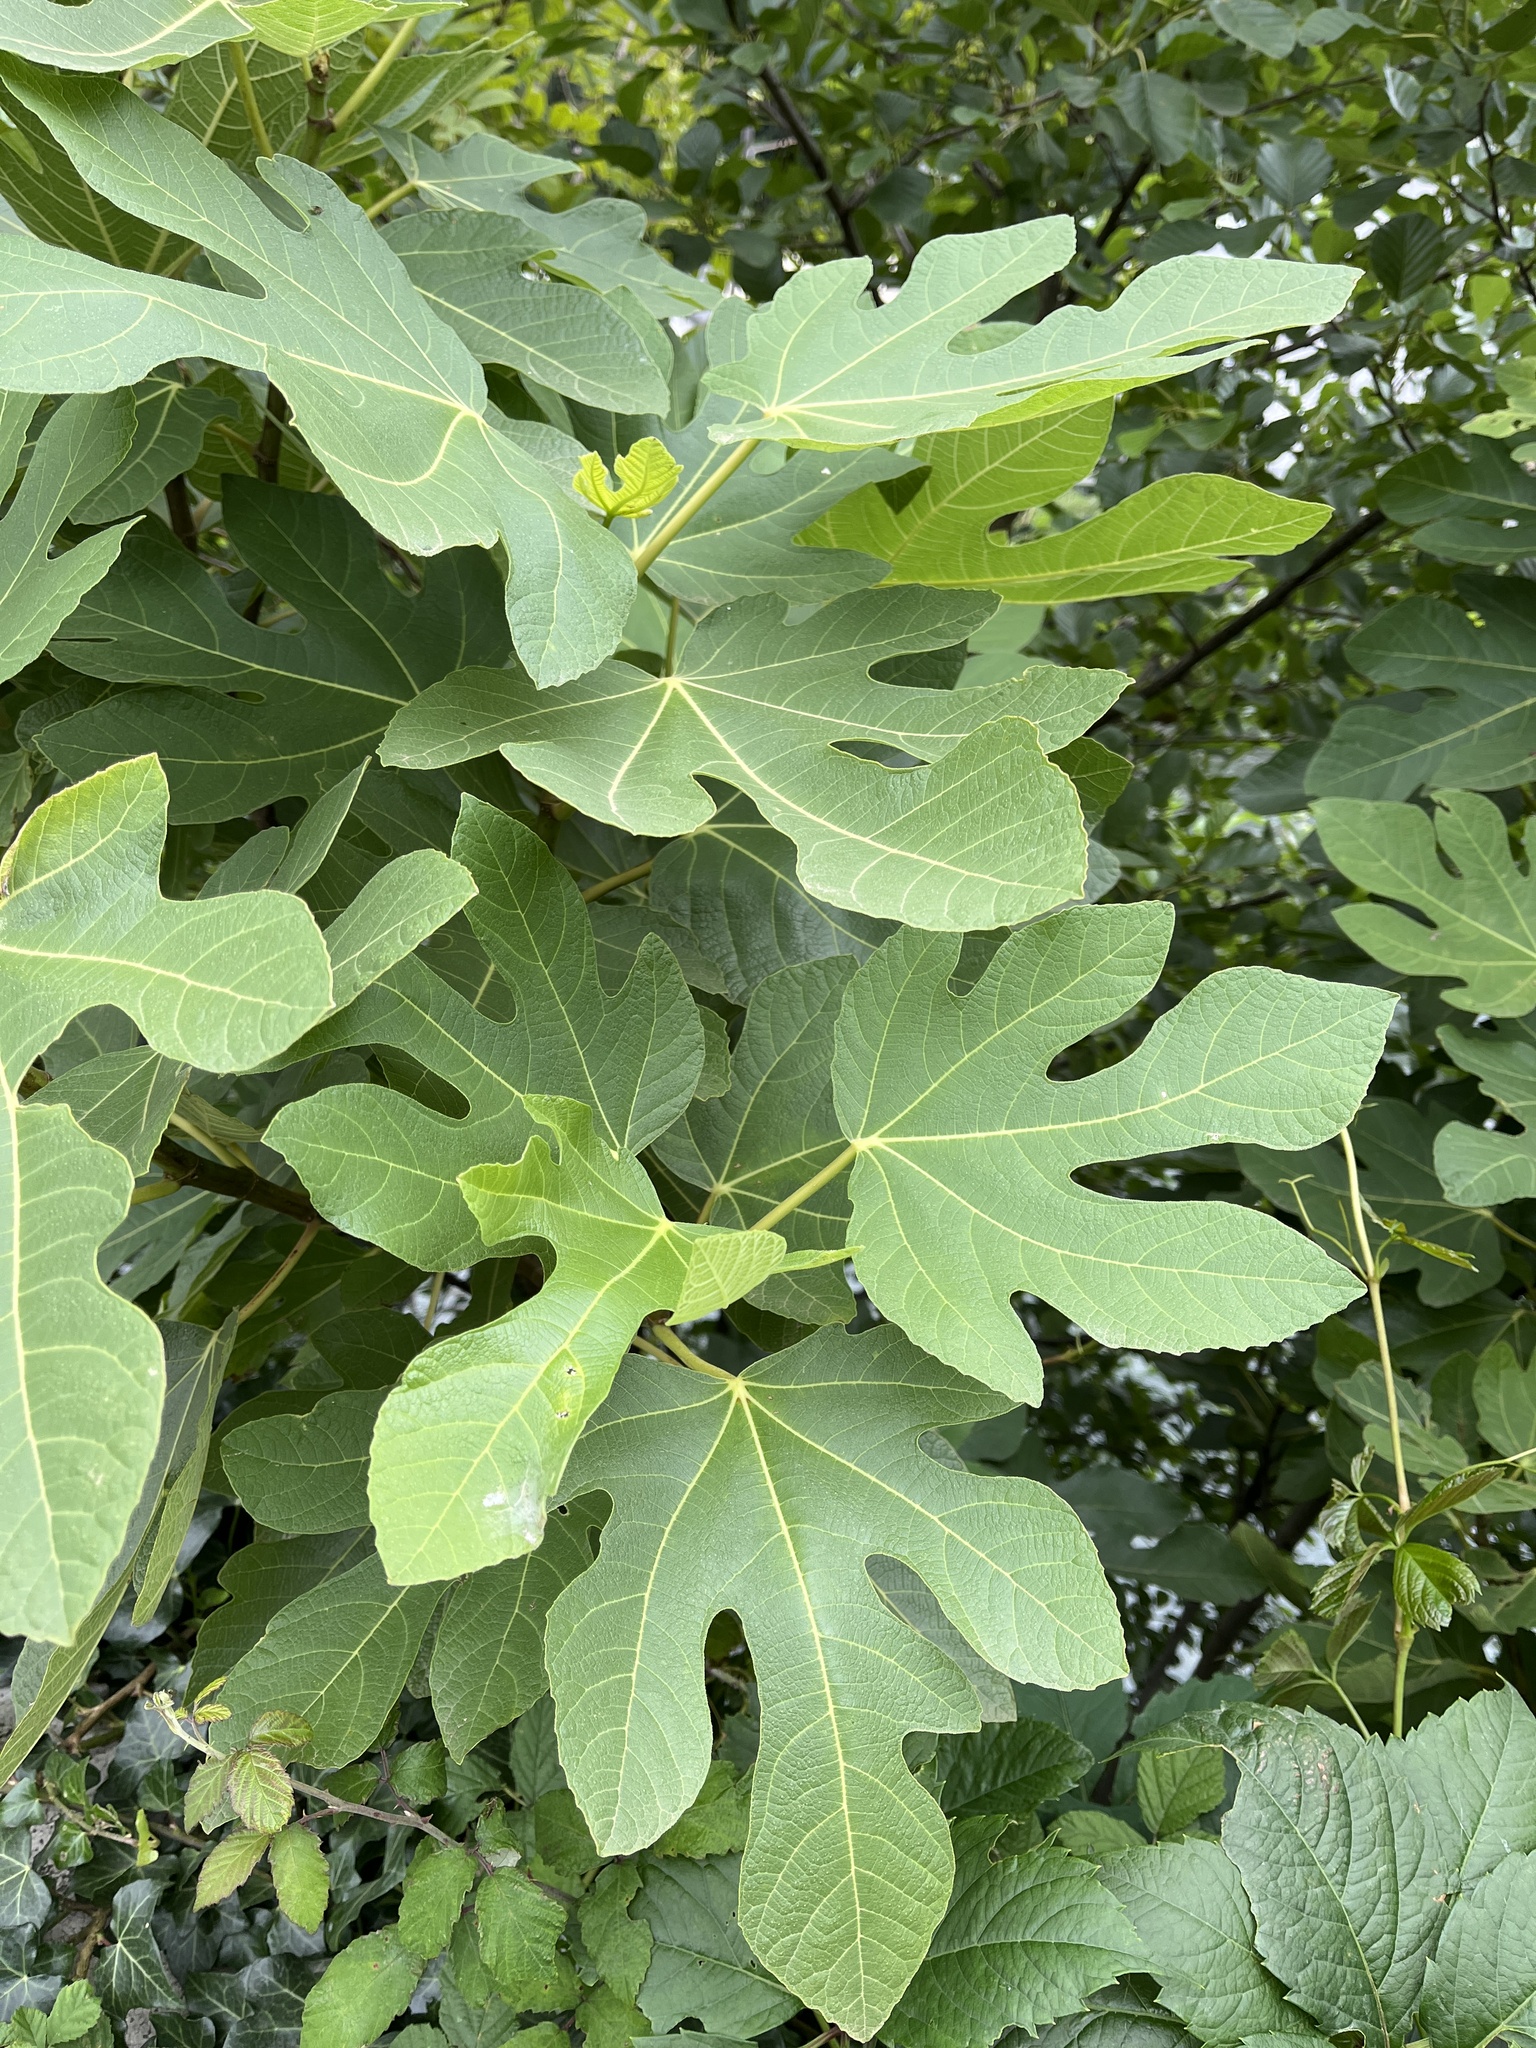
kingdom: Plantae
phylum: Tracheophyta
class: Magnoliopsida
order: Rosales
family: Moraceae
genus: Ficus
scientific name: Ficus carica
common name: Fig
